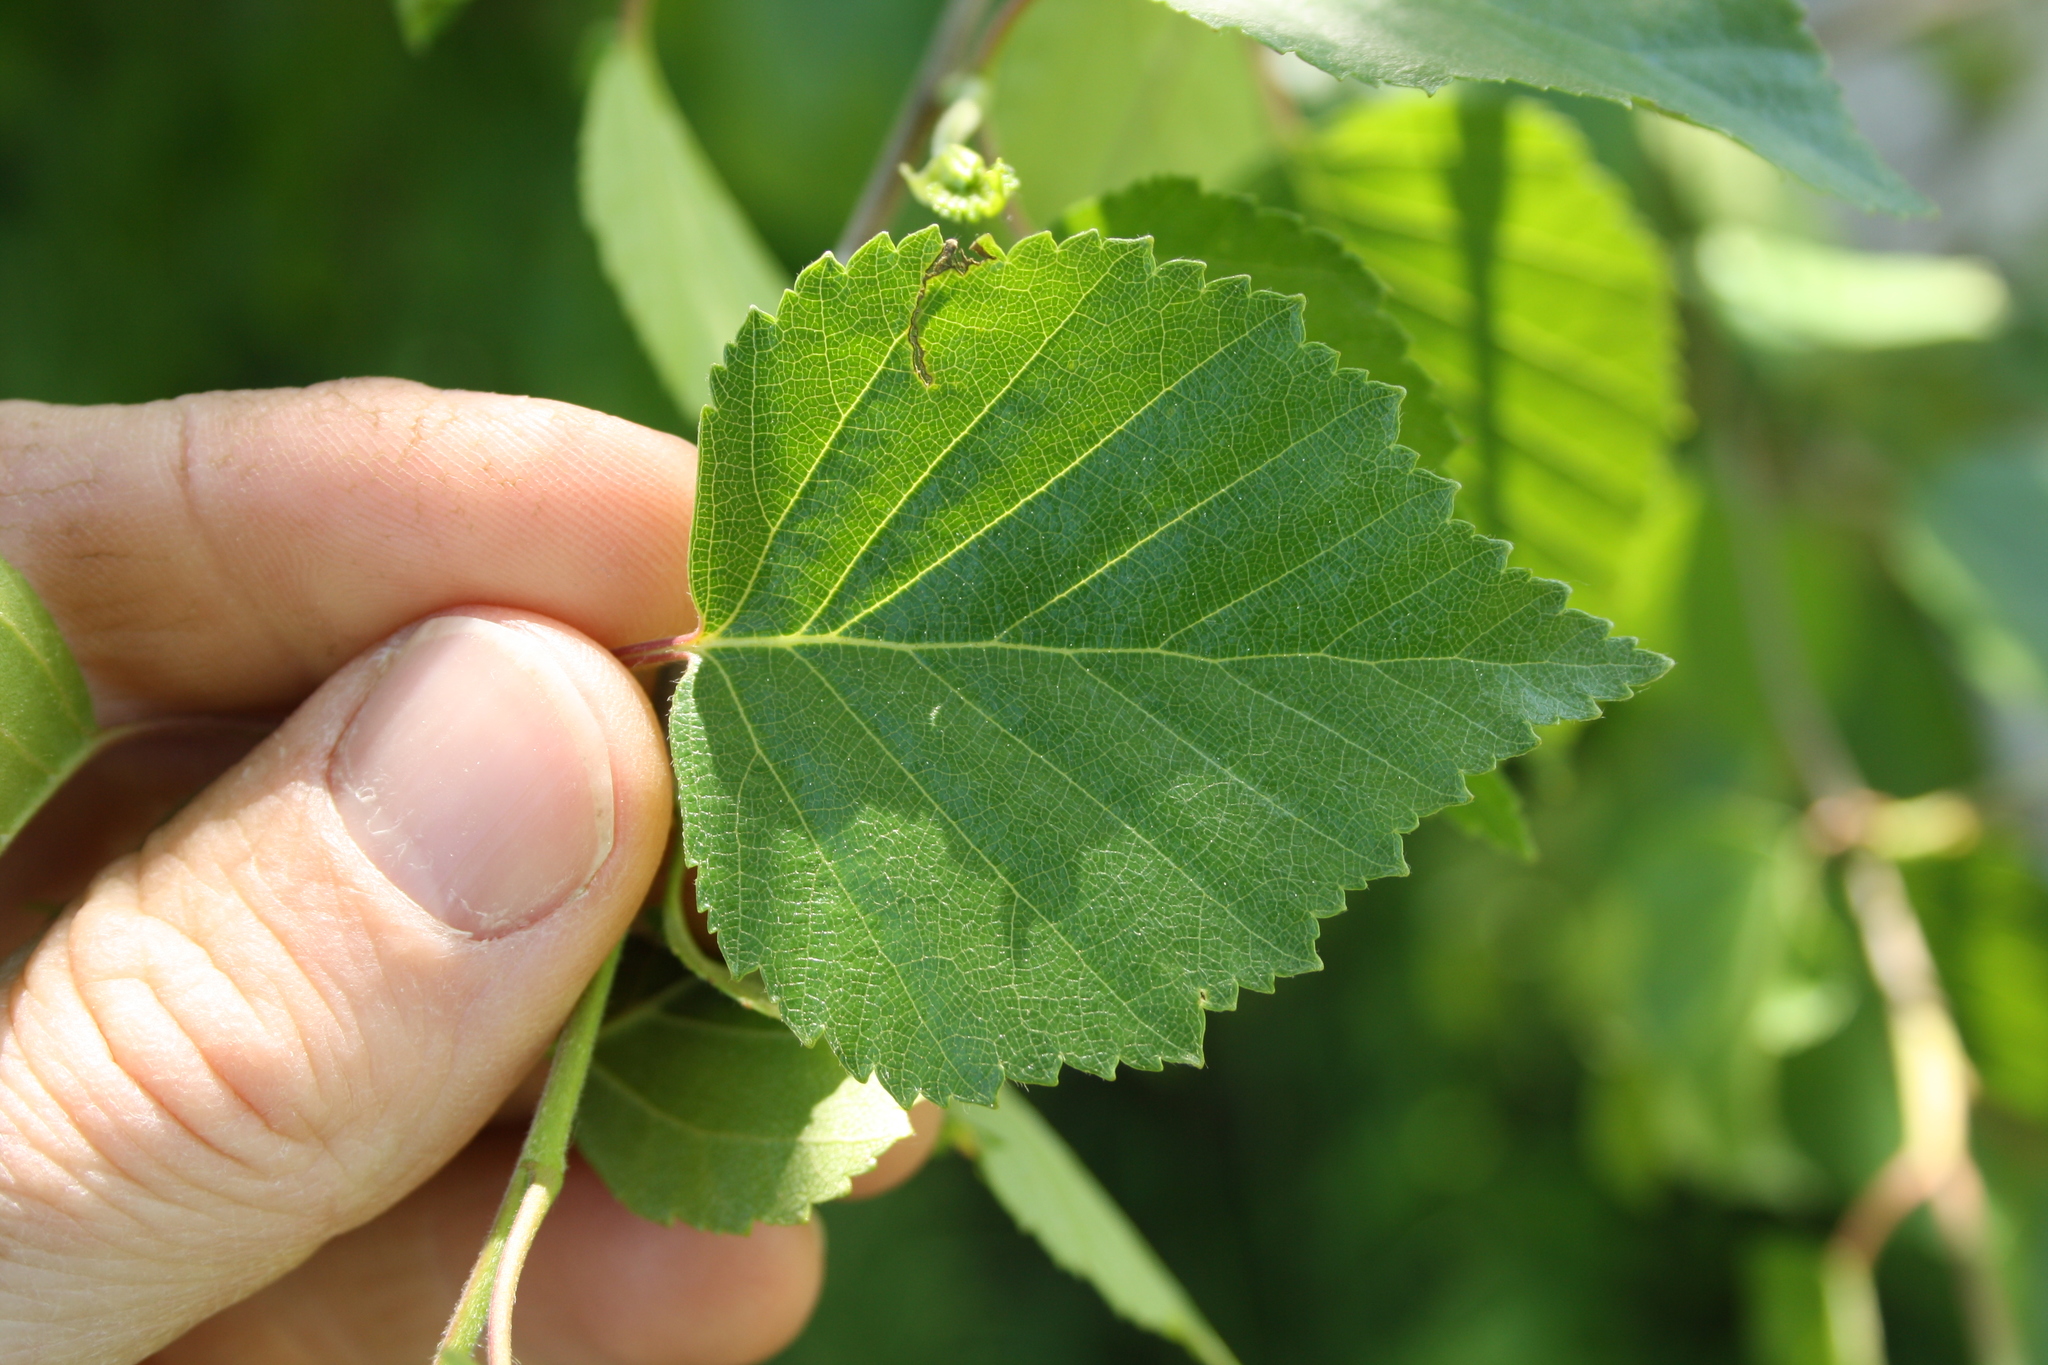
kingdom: Plantae
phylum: Tracheophyta
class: Magnoliopsida
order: Fagales
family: Betulaceae
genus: Betula
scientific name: Betula pendula
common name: Silver birch
